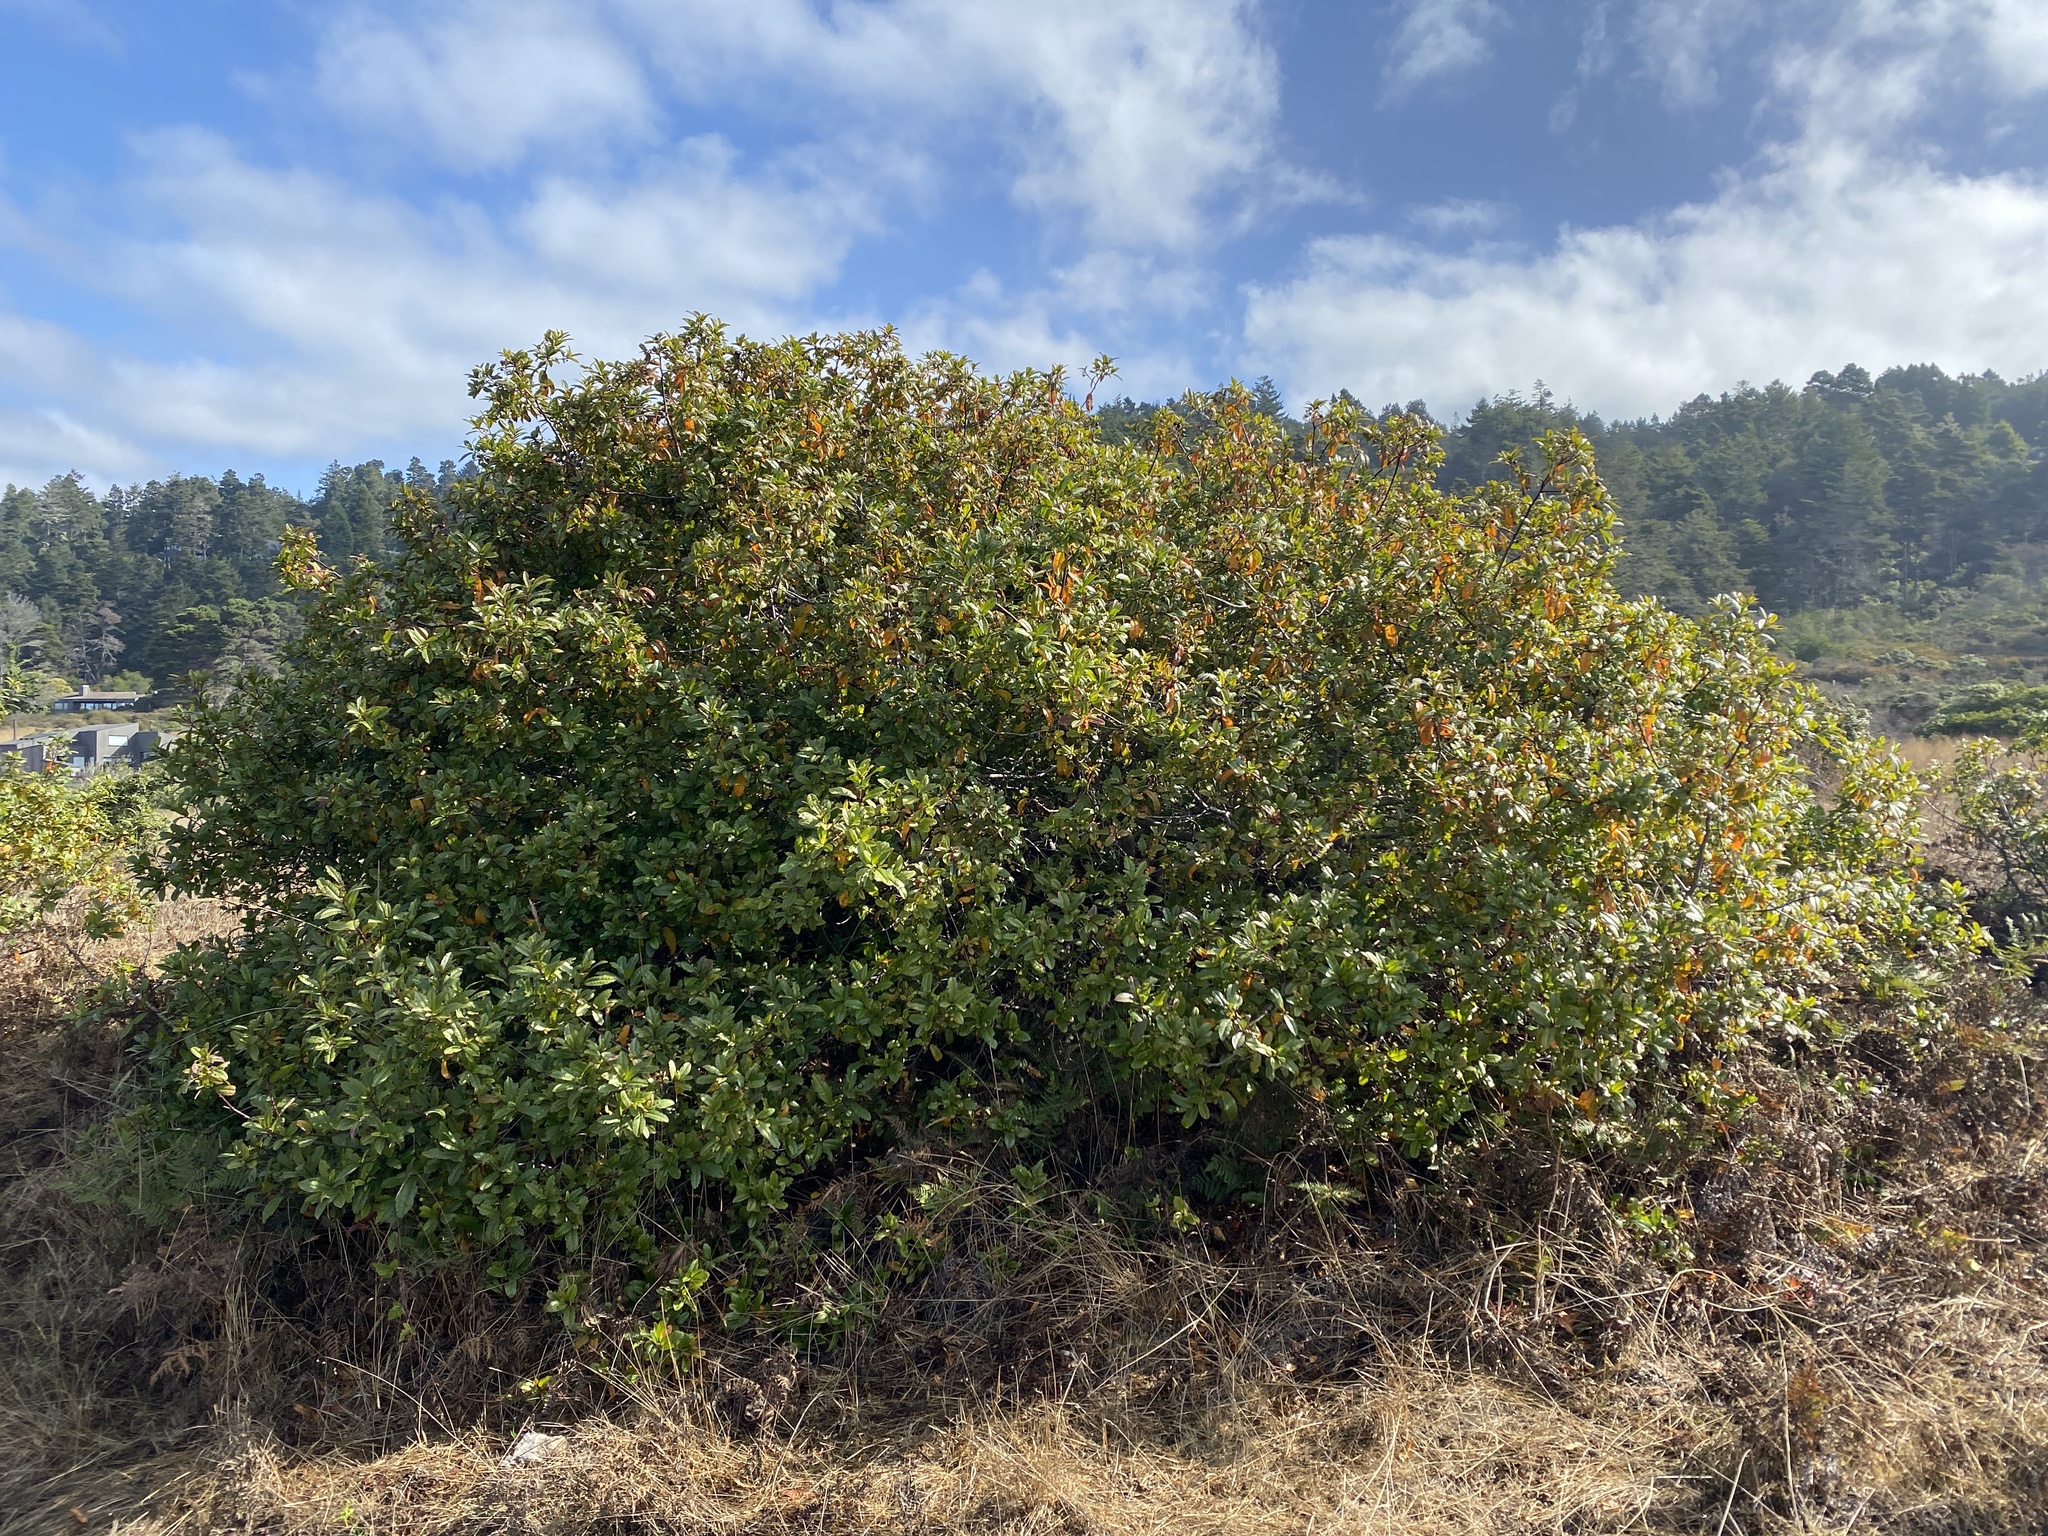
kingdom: Plantae
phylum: Tracheophyta
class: Magnoliopsida
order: Rosales
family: Rhamnaceae
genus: Frangula
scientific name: Frangula californica
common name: California buckthorn
